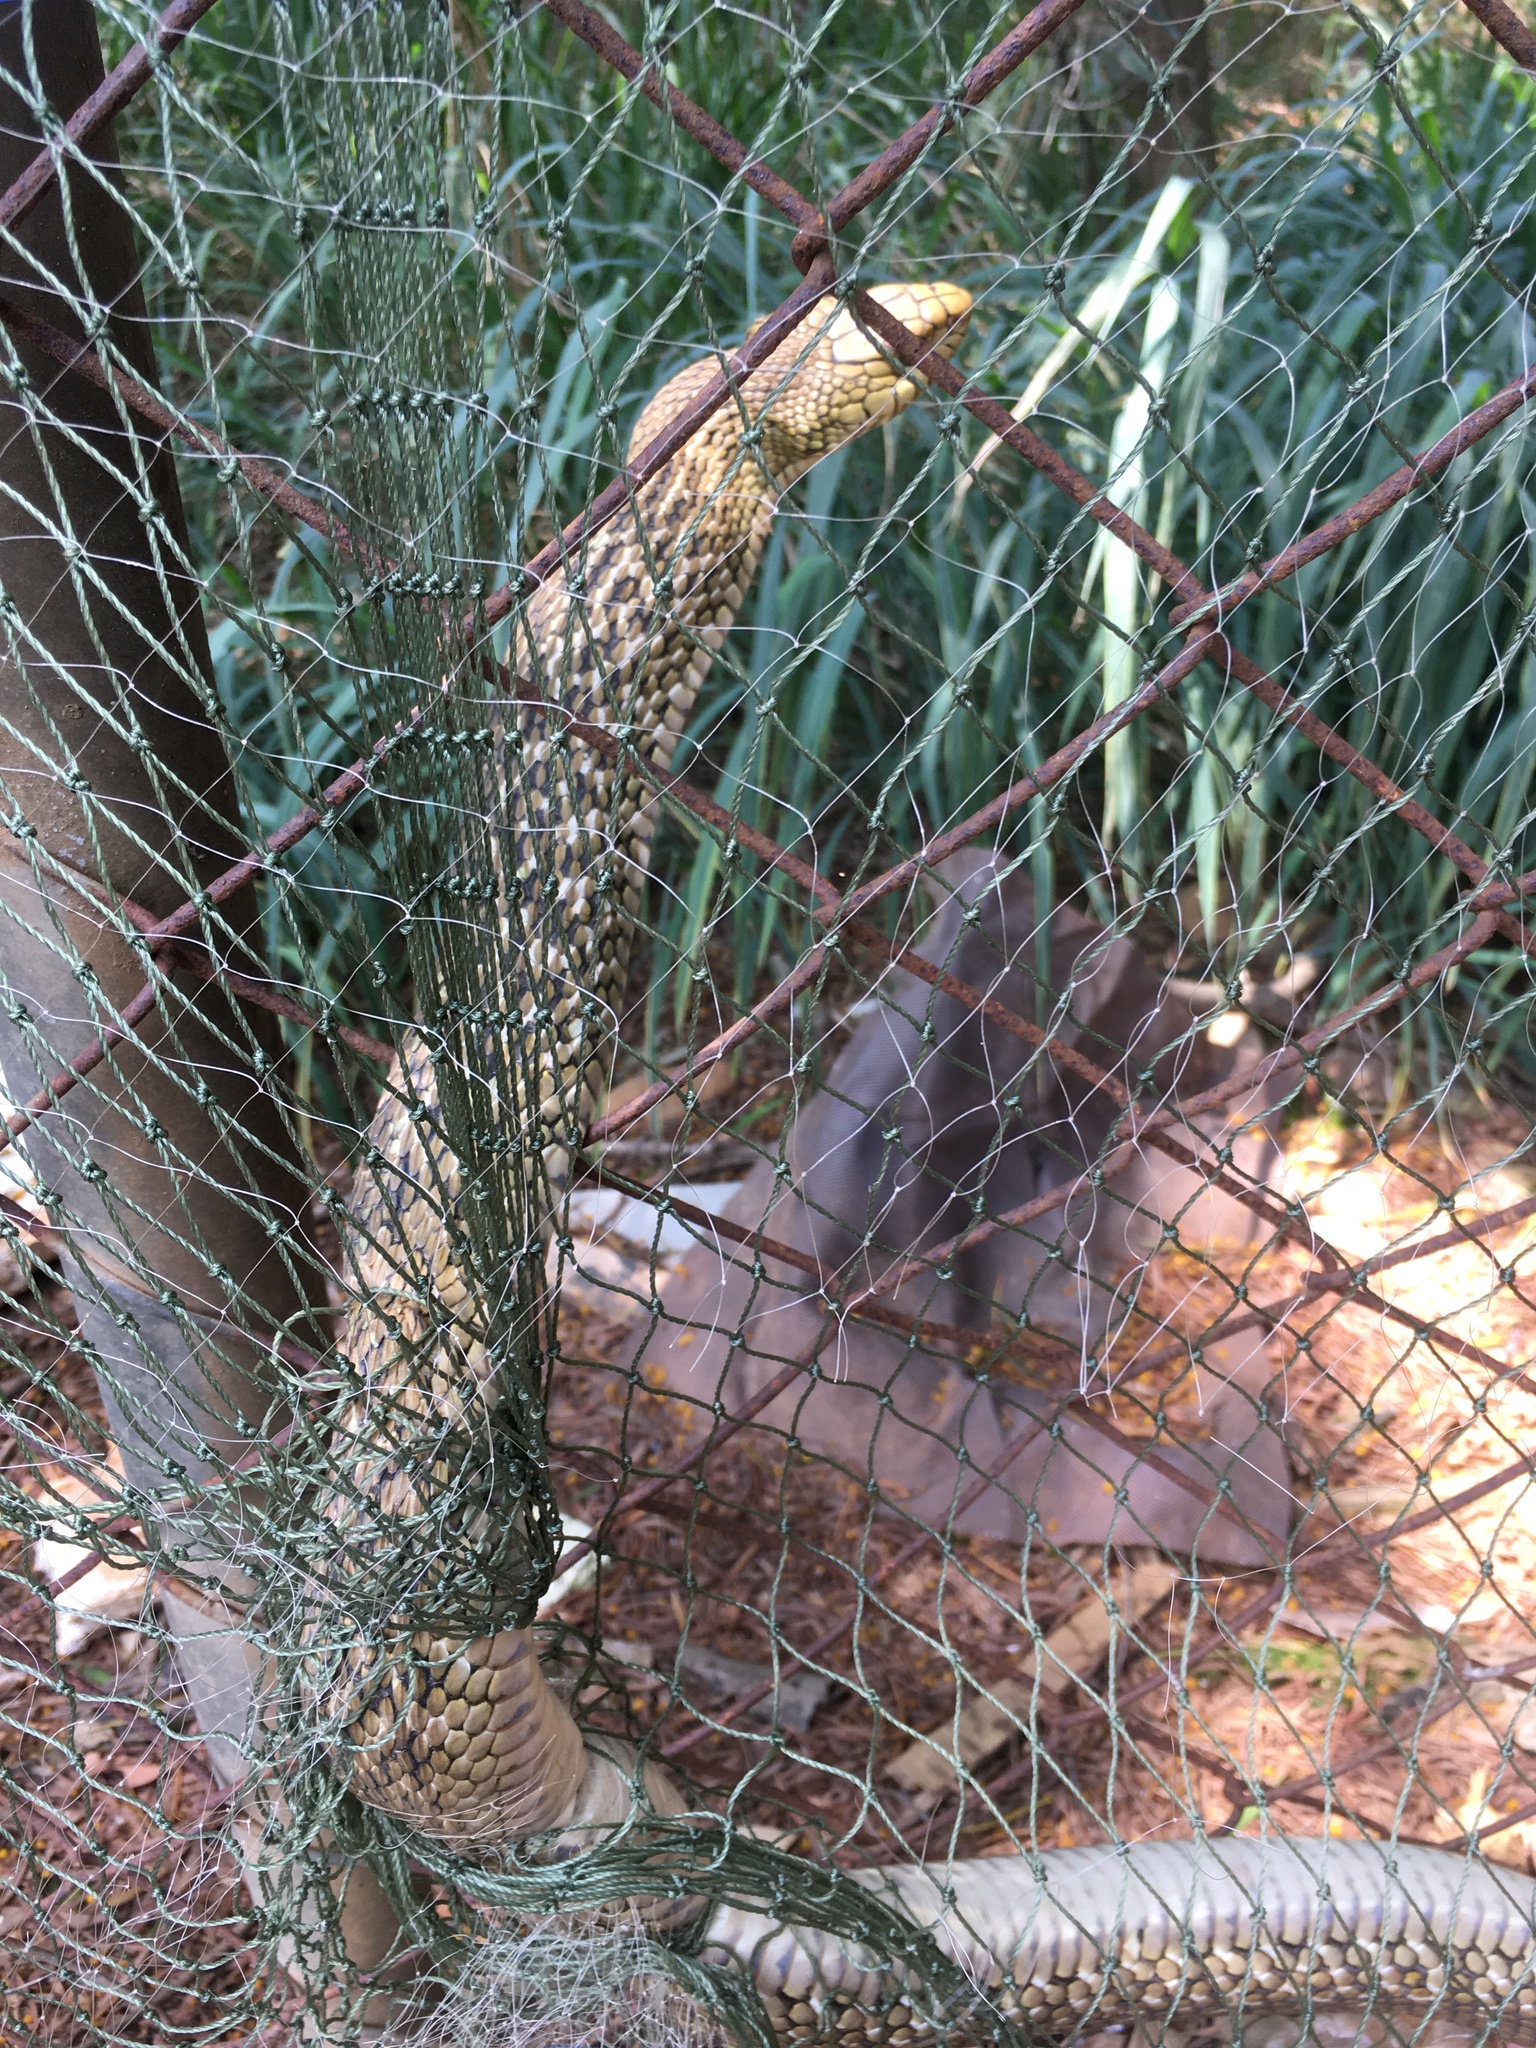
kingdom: Animalia
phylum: Chordata
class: Squamata
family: Colubridae
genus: Elaphe
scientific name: Elaphe carinata
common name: Taiwan stink snake
